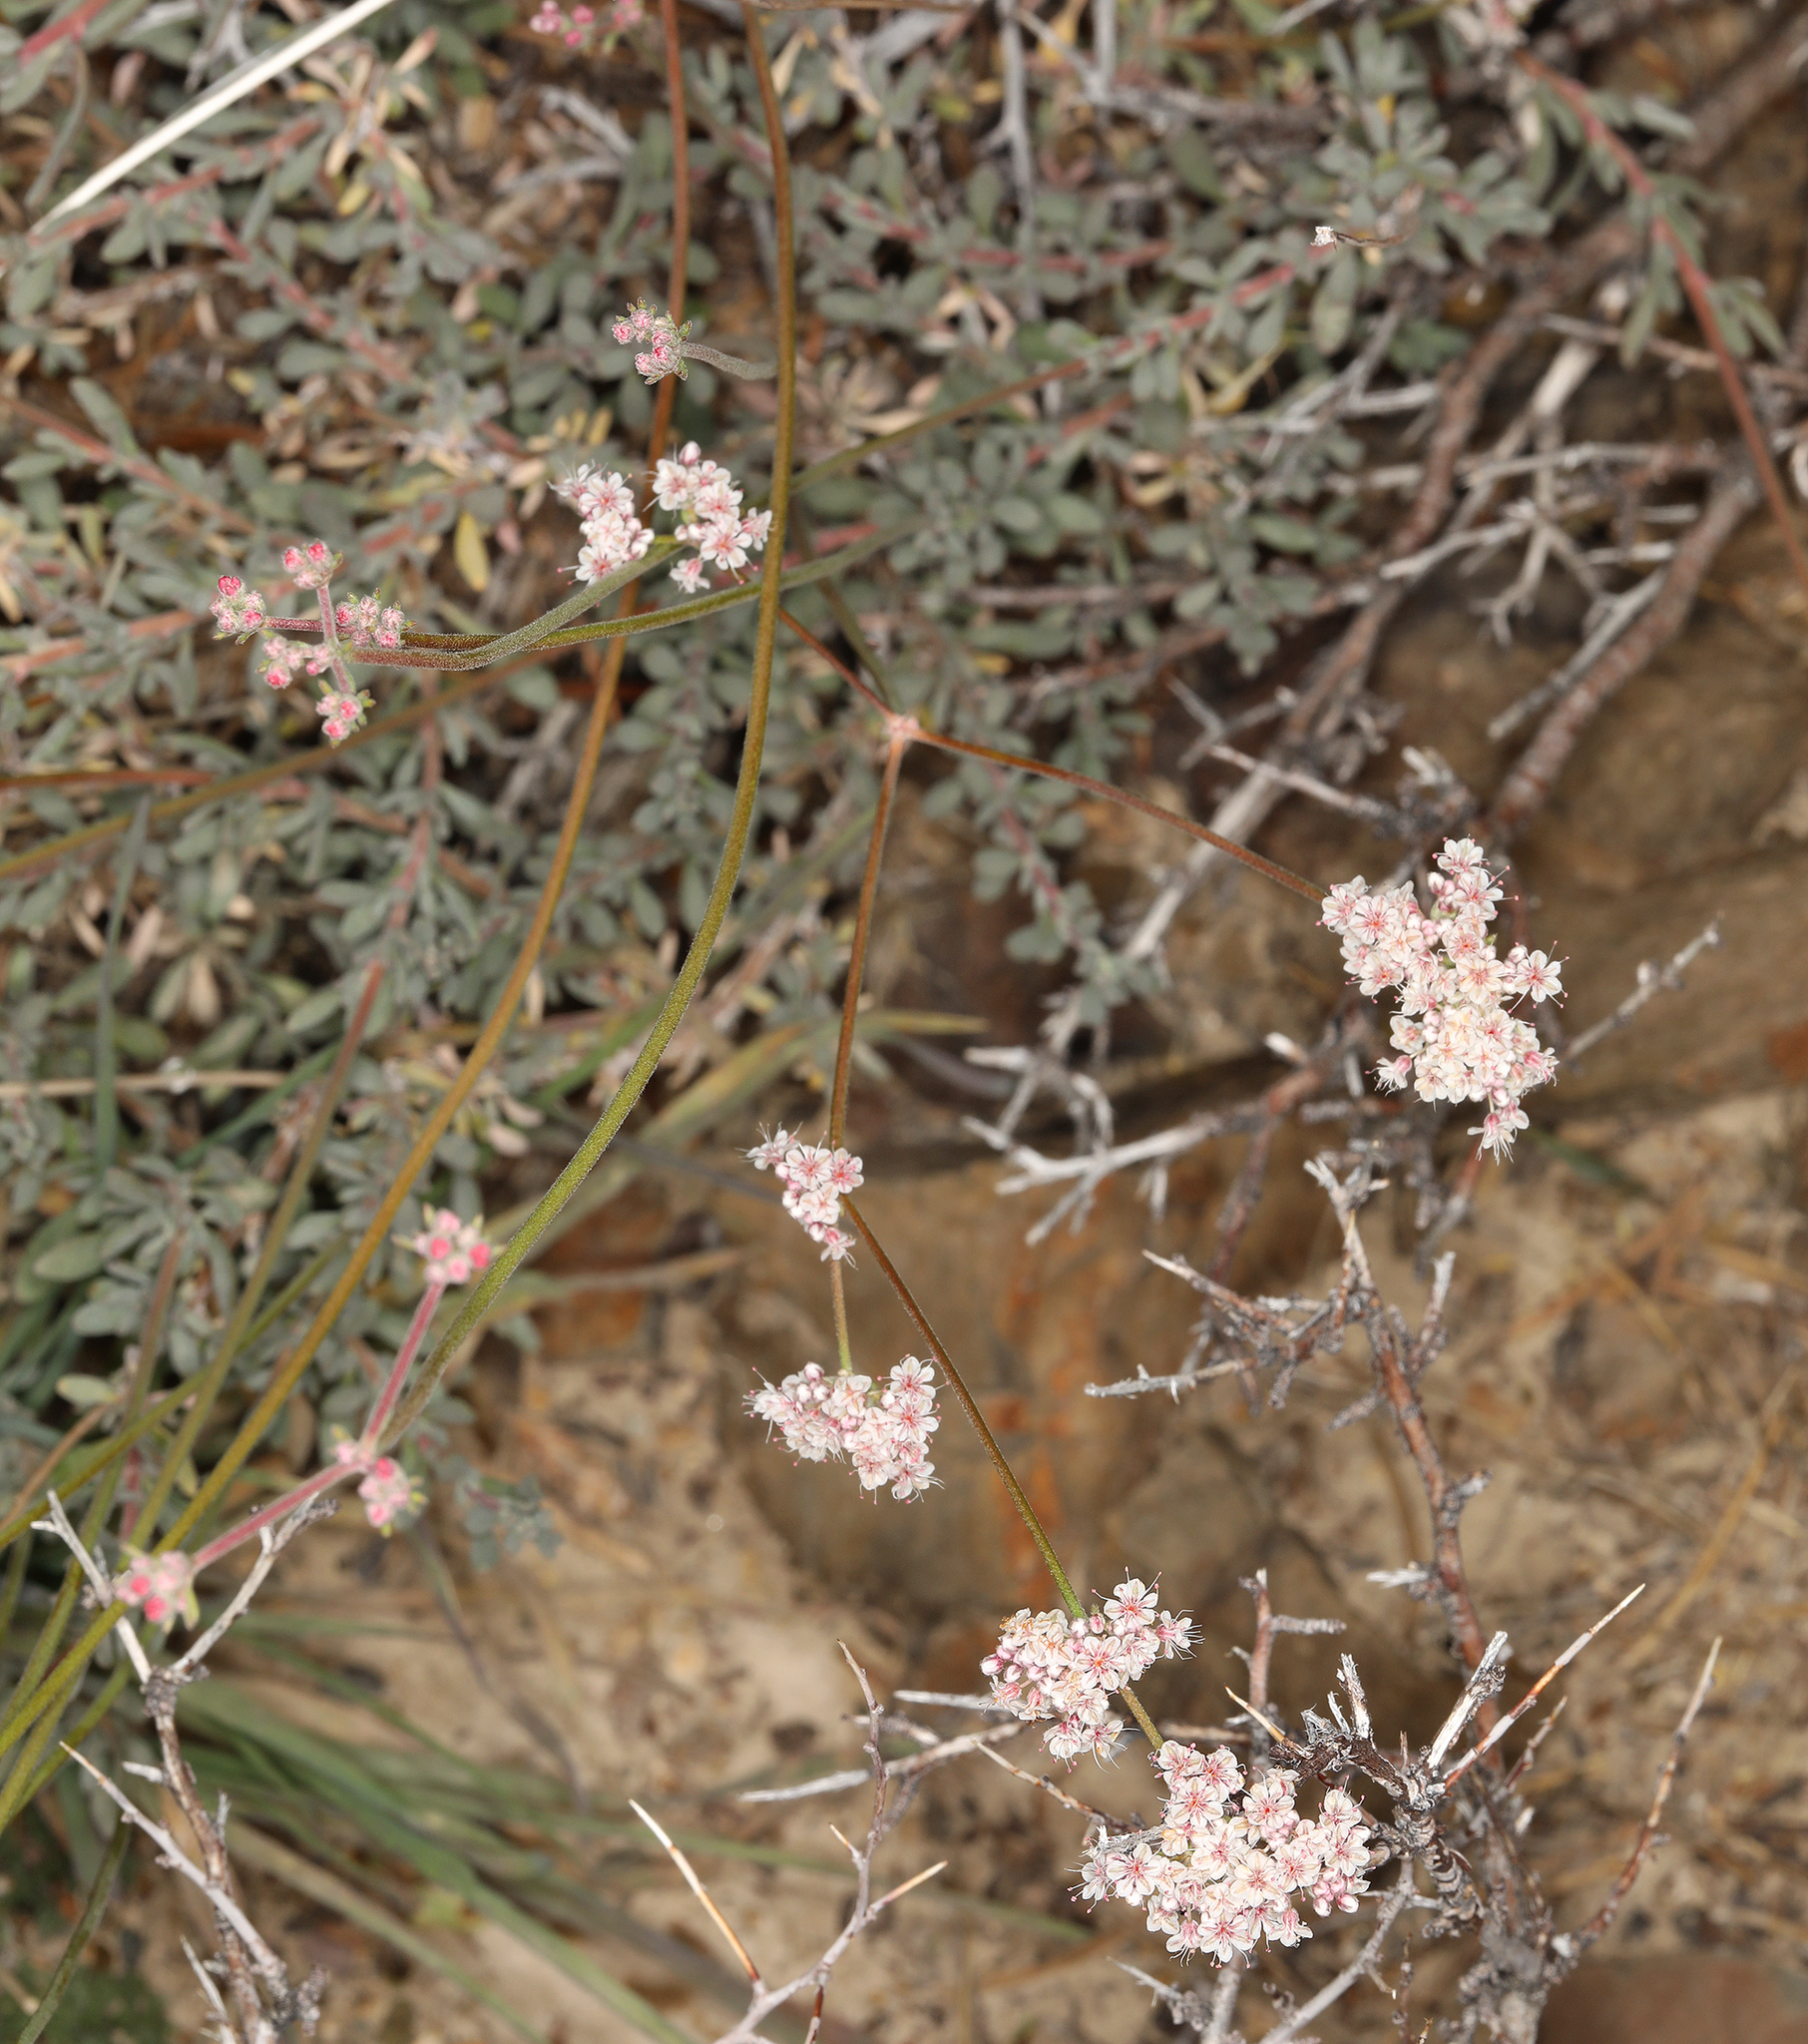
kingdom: Plantae
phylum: Tracheophyta
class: Magnoliopsida
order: Caryophyllales
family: Polygonaceae
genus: Eriogonum
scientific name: Eriogonum fasciculatum
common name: California wild buckwheat
